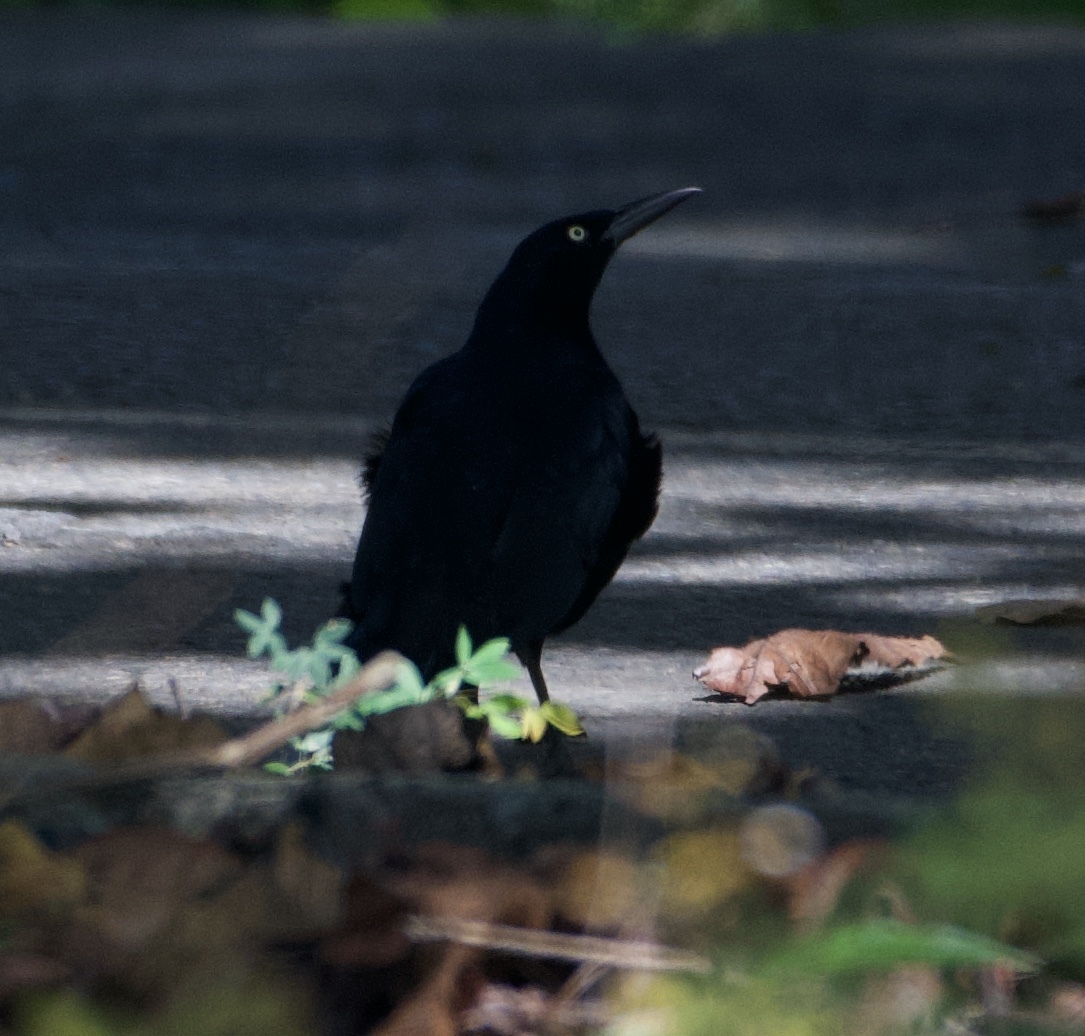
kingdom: Animalia
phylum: Chordata
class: Aves
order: Passeriformes
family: Icteridae
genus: Quiscalus
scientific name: Quiscalus mexicanus
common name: Great-tailed grackle
